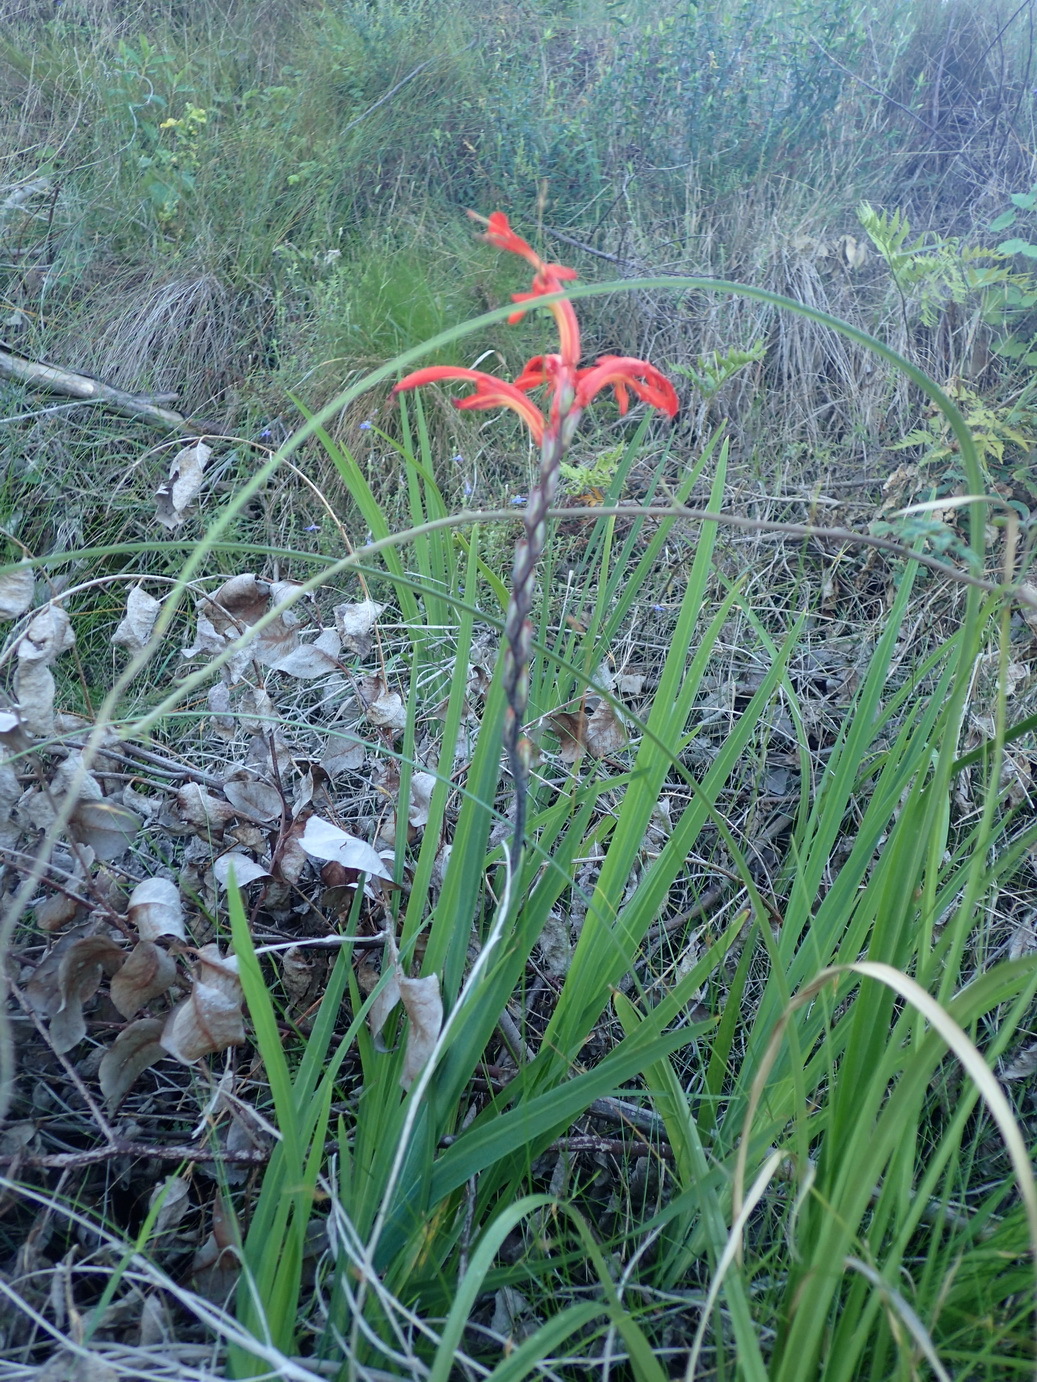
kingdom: Plantae
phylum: Tracheophyta
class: Liliopsida
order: Asparagales
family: Iridaceae
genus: Chasmanthe
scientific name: Chasmanthe aethiopica
